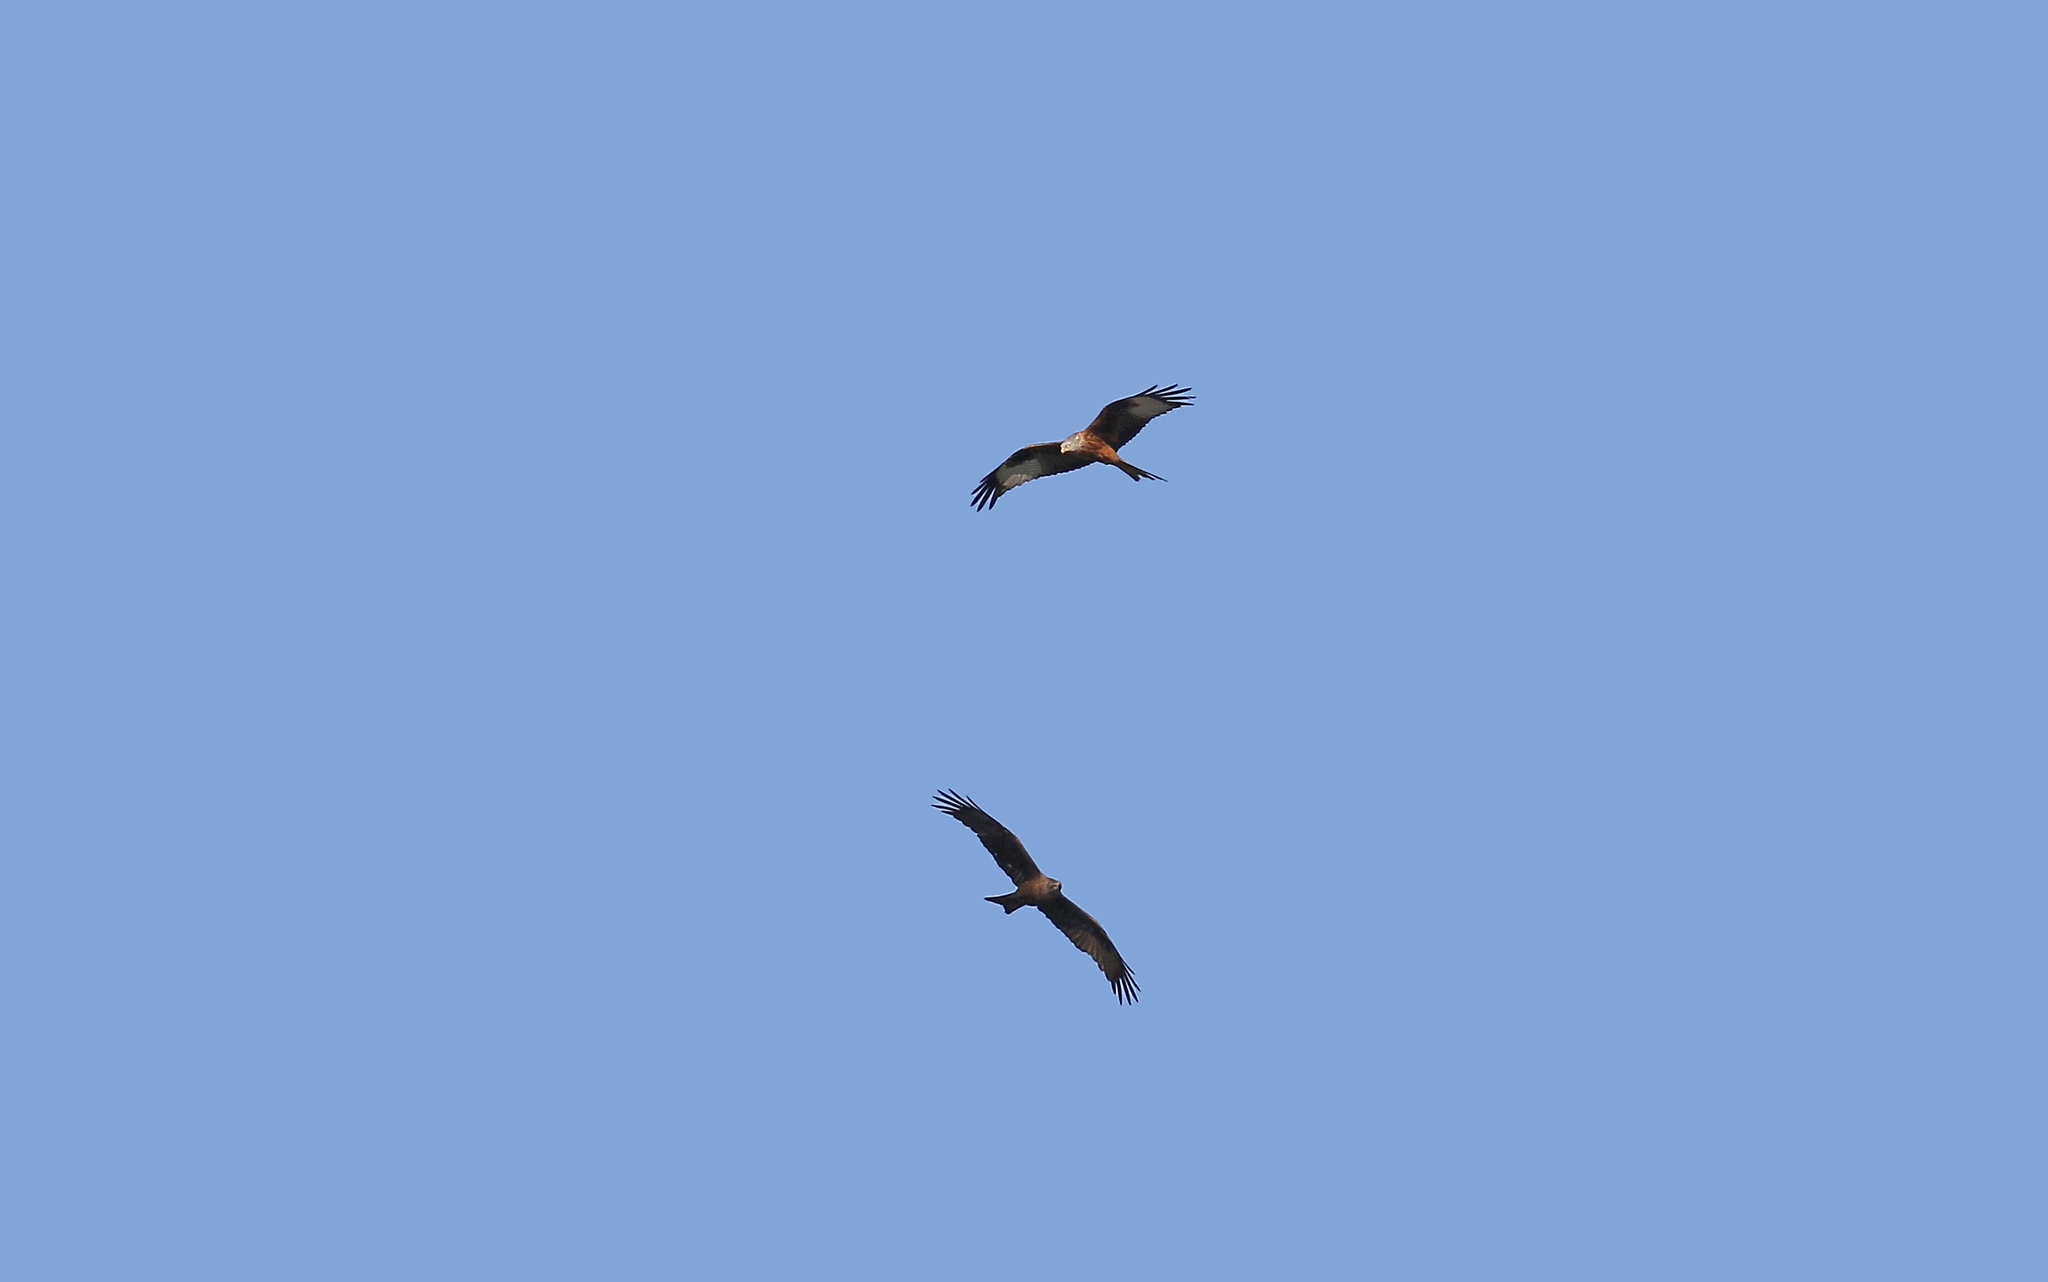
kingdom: Animalia
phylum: Chordata
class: Aves
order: Accipitriformes
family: Accipitridae
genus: Milvus
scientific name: Milvus migrans
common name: Black kite
